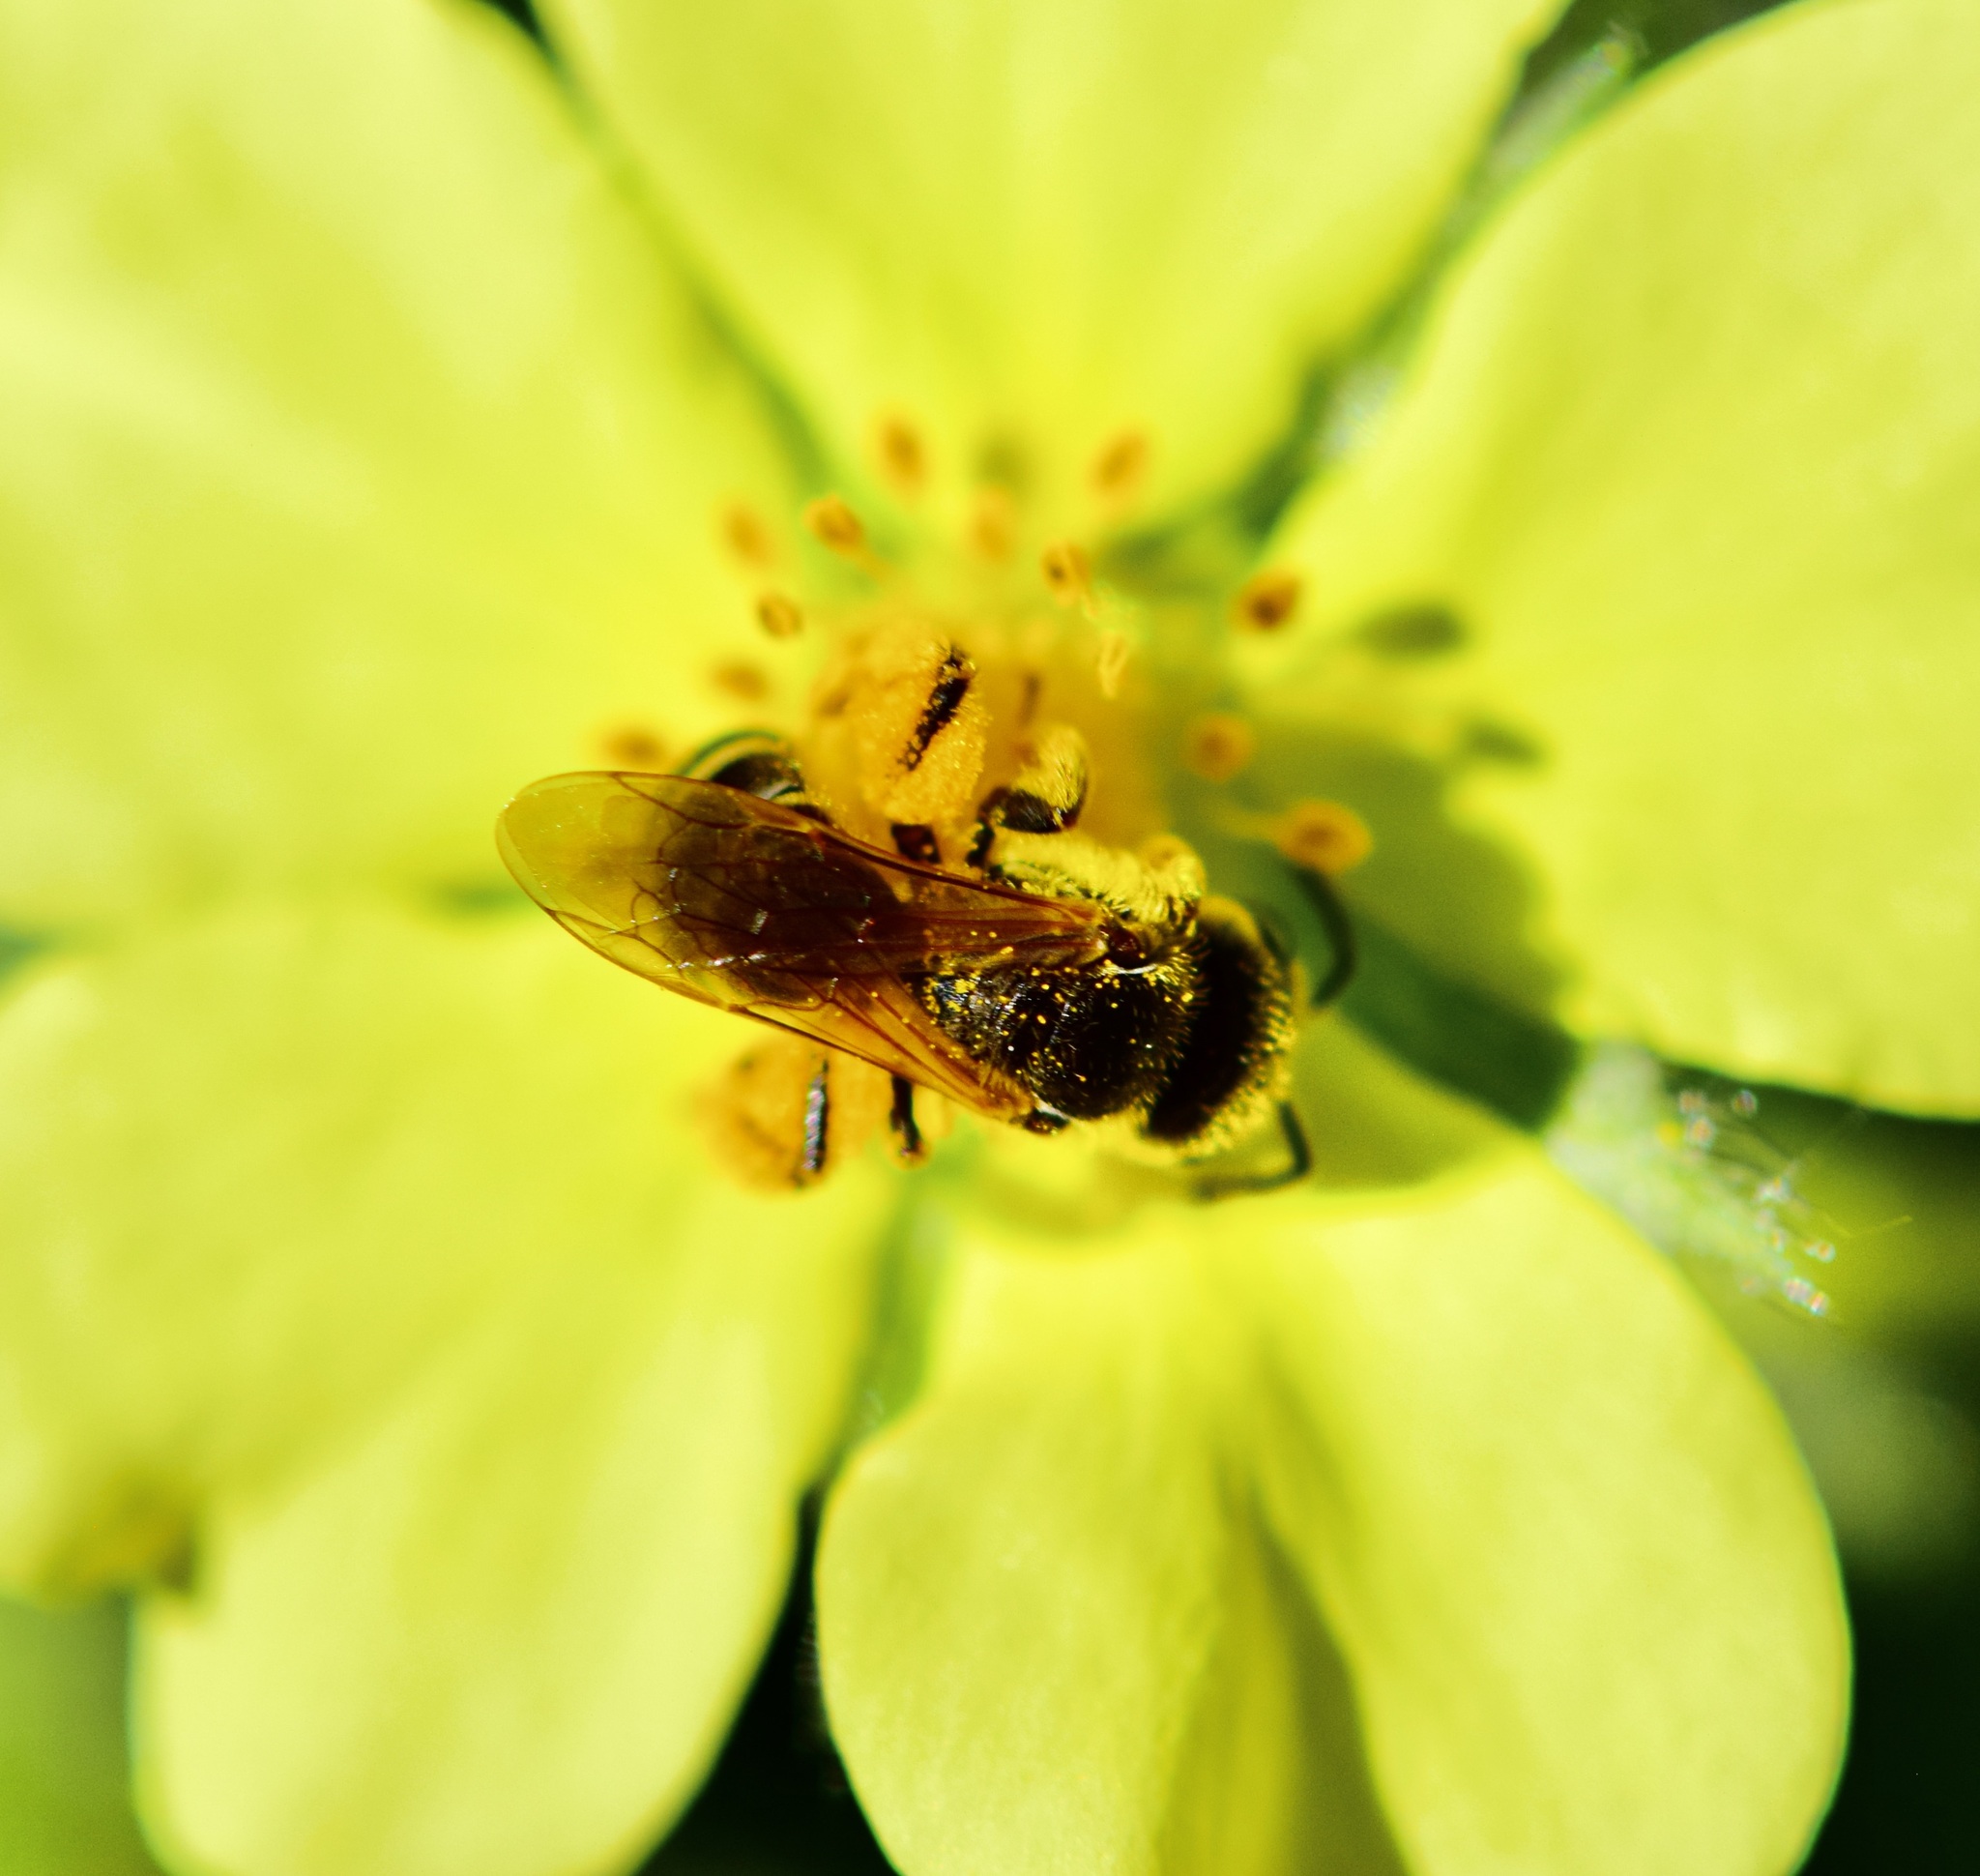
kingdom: Animalia
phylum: Arthropoda
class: Insecta
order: Hymenoptera
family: Halictidae
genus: Halictus
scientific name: Halictus ligatus
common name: Ligated furrow bee
